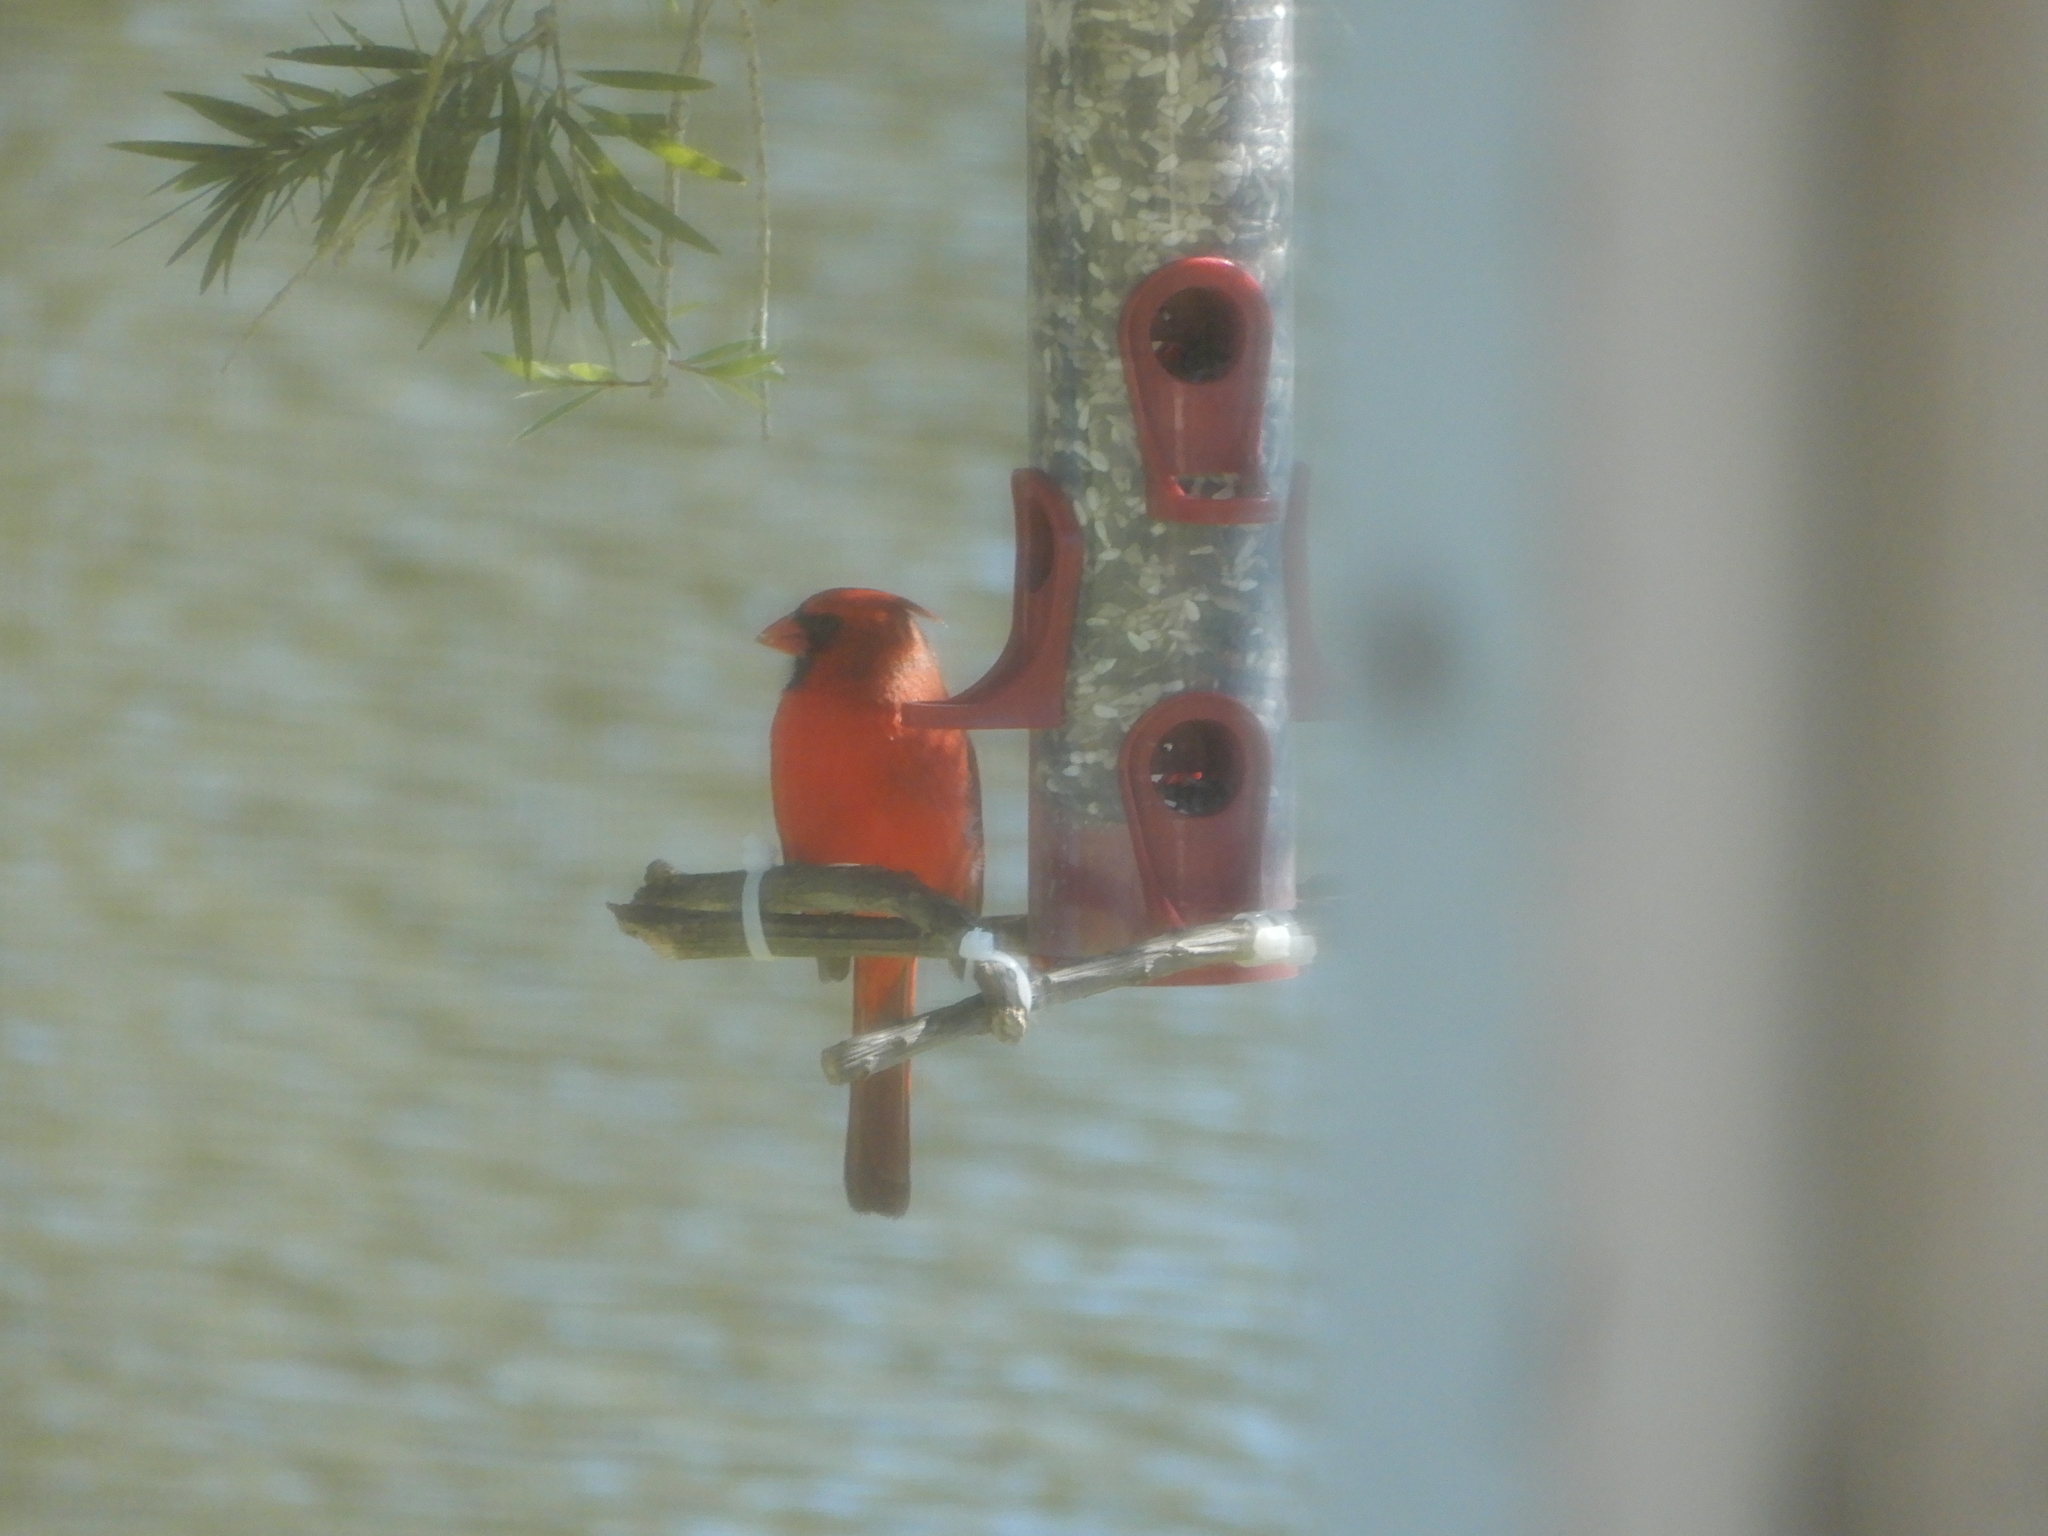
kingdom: Animalia
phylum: Chordata
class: Aves
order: Passeriformes
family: Cardinalidae
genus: Cardinalis
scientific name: Cardinalis cardinalis
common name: Northern cardinal
